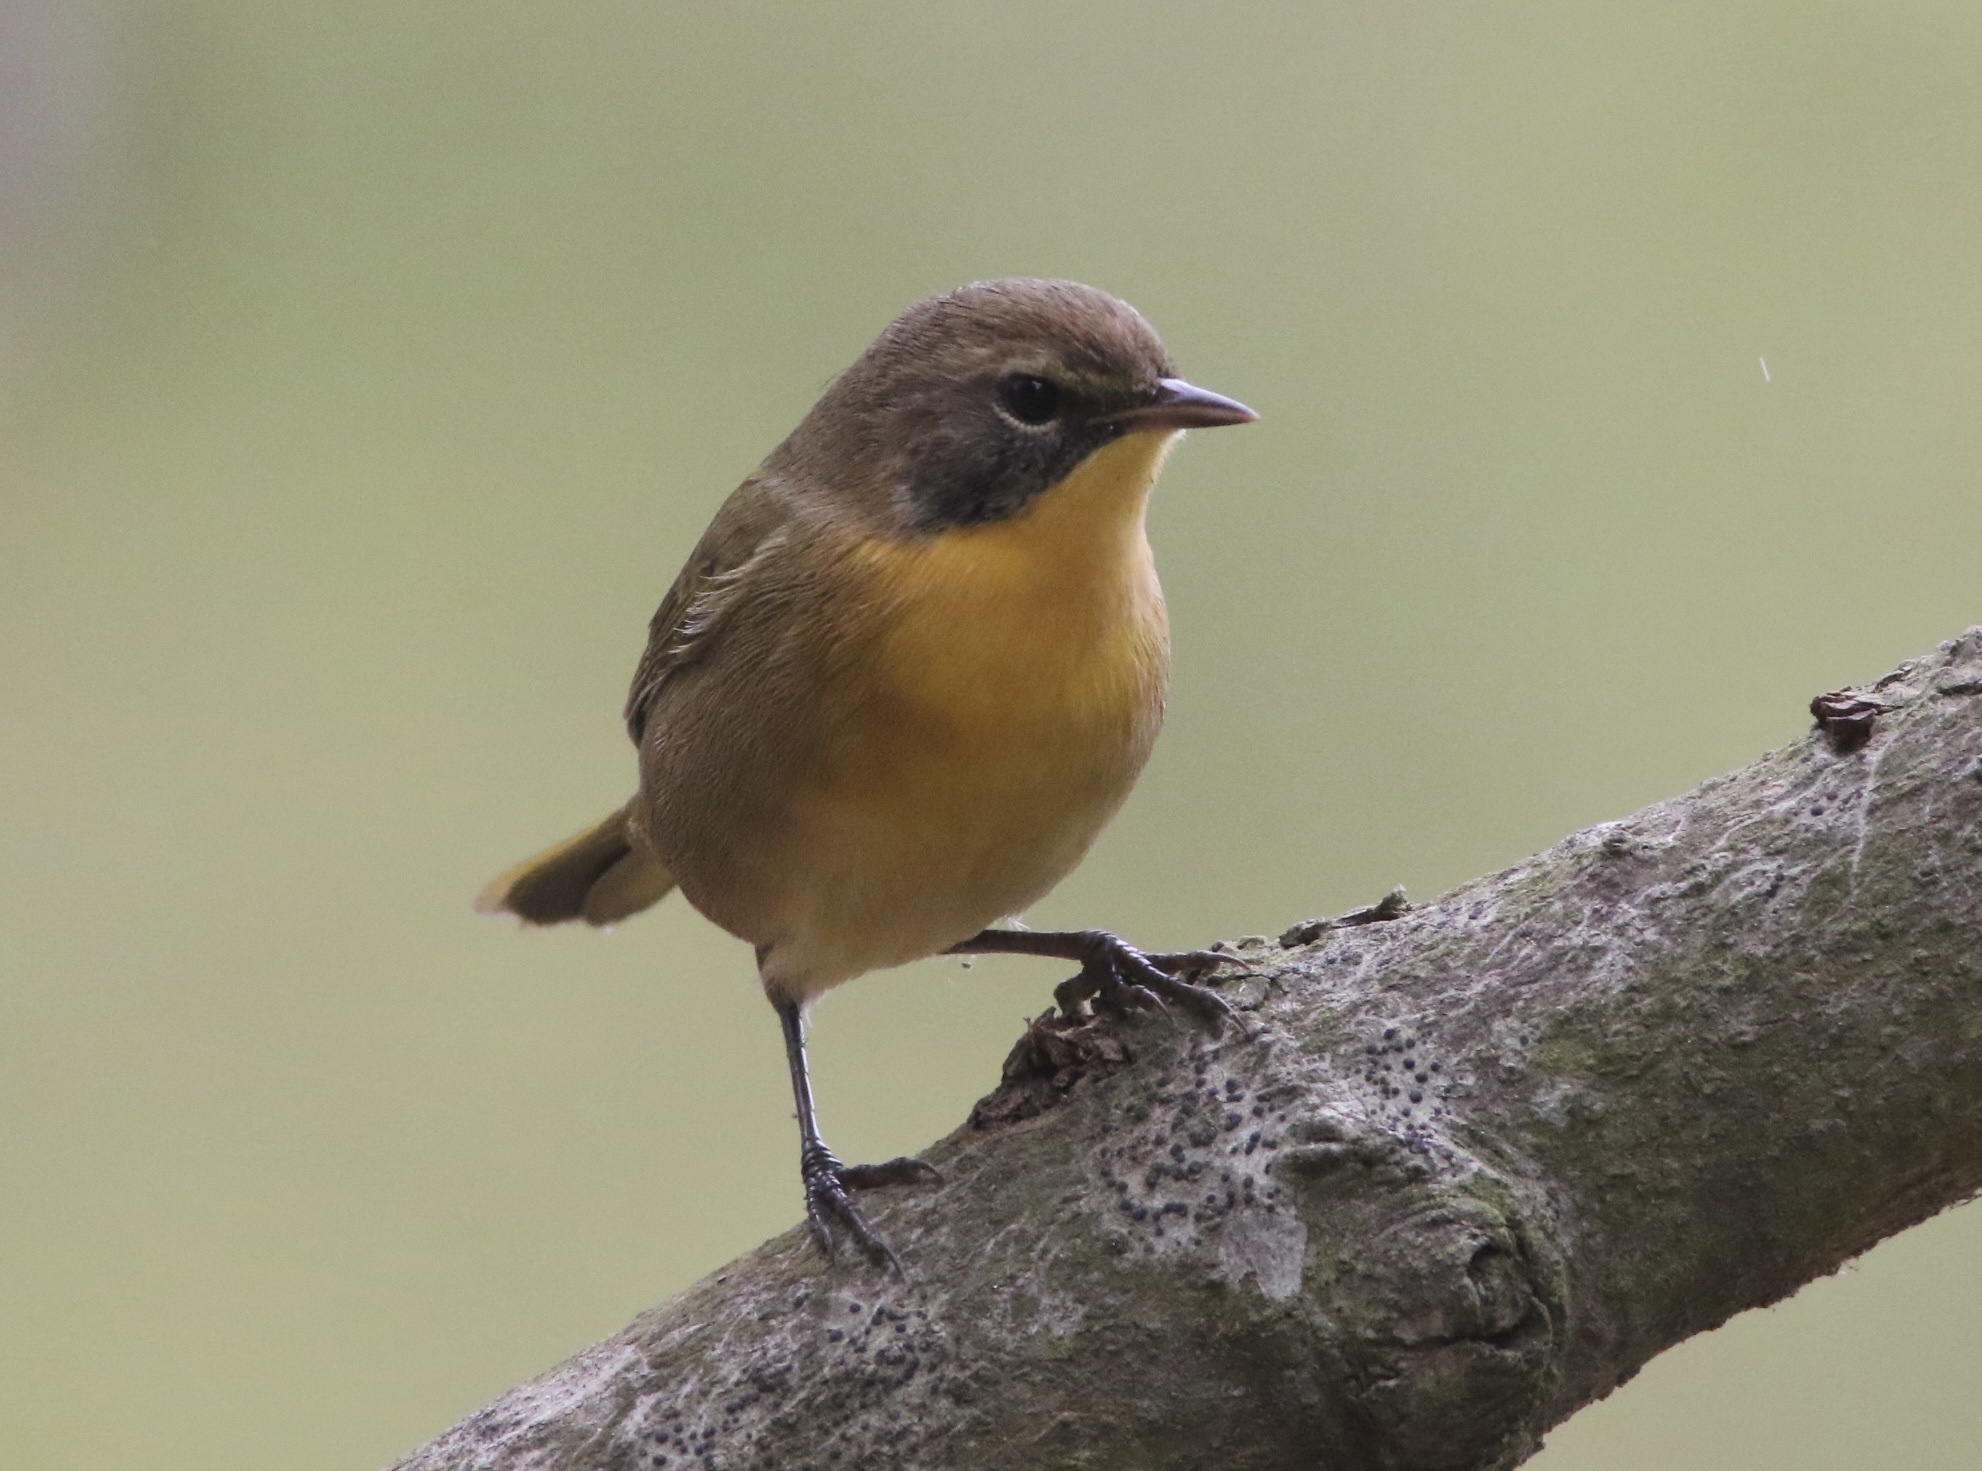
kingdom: Animalia
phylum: Chordata
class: Aves
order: Passeriformes
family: Parulidae
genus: Geothlypis
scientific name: Geothlypis trichas
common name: Common yellowthroat
